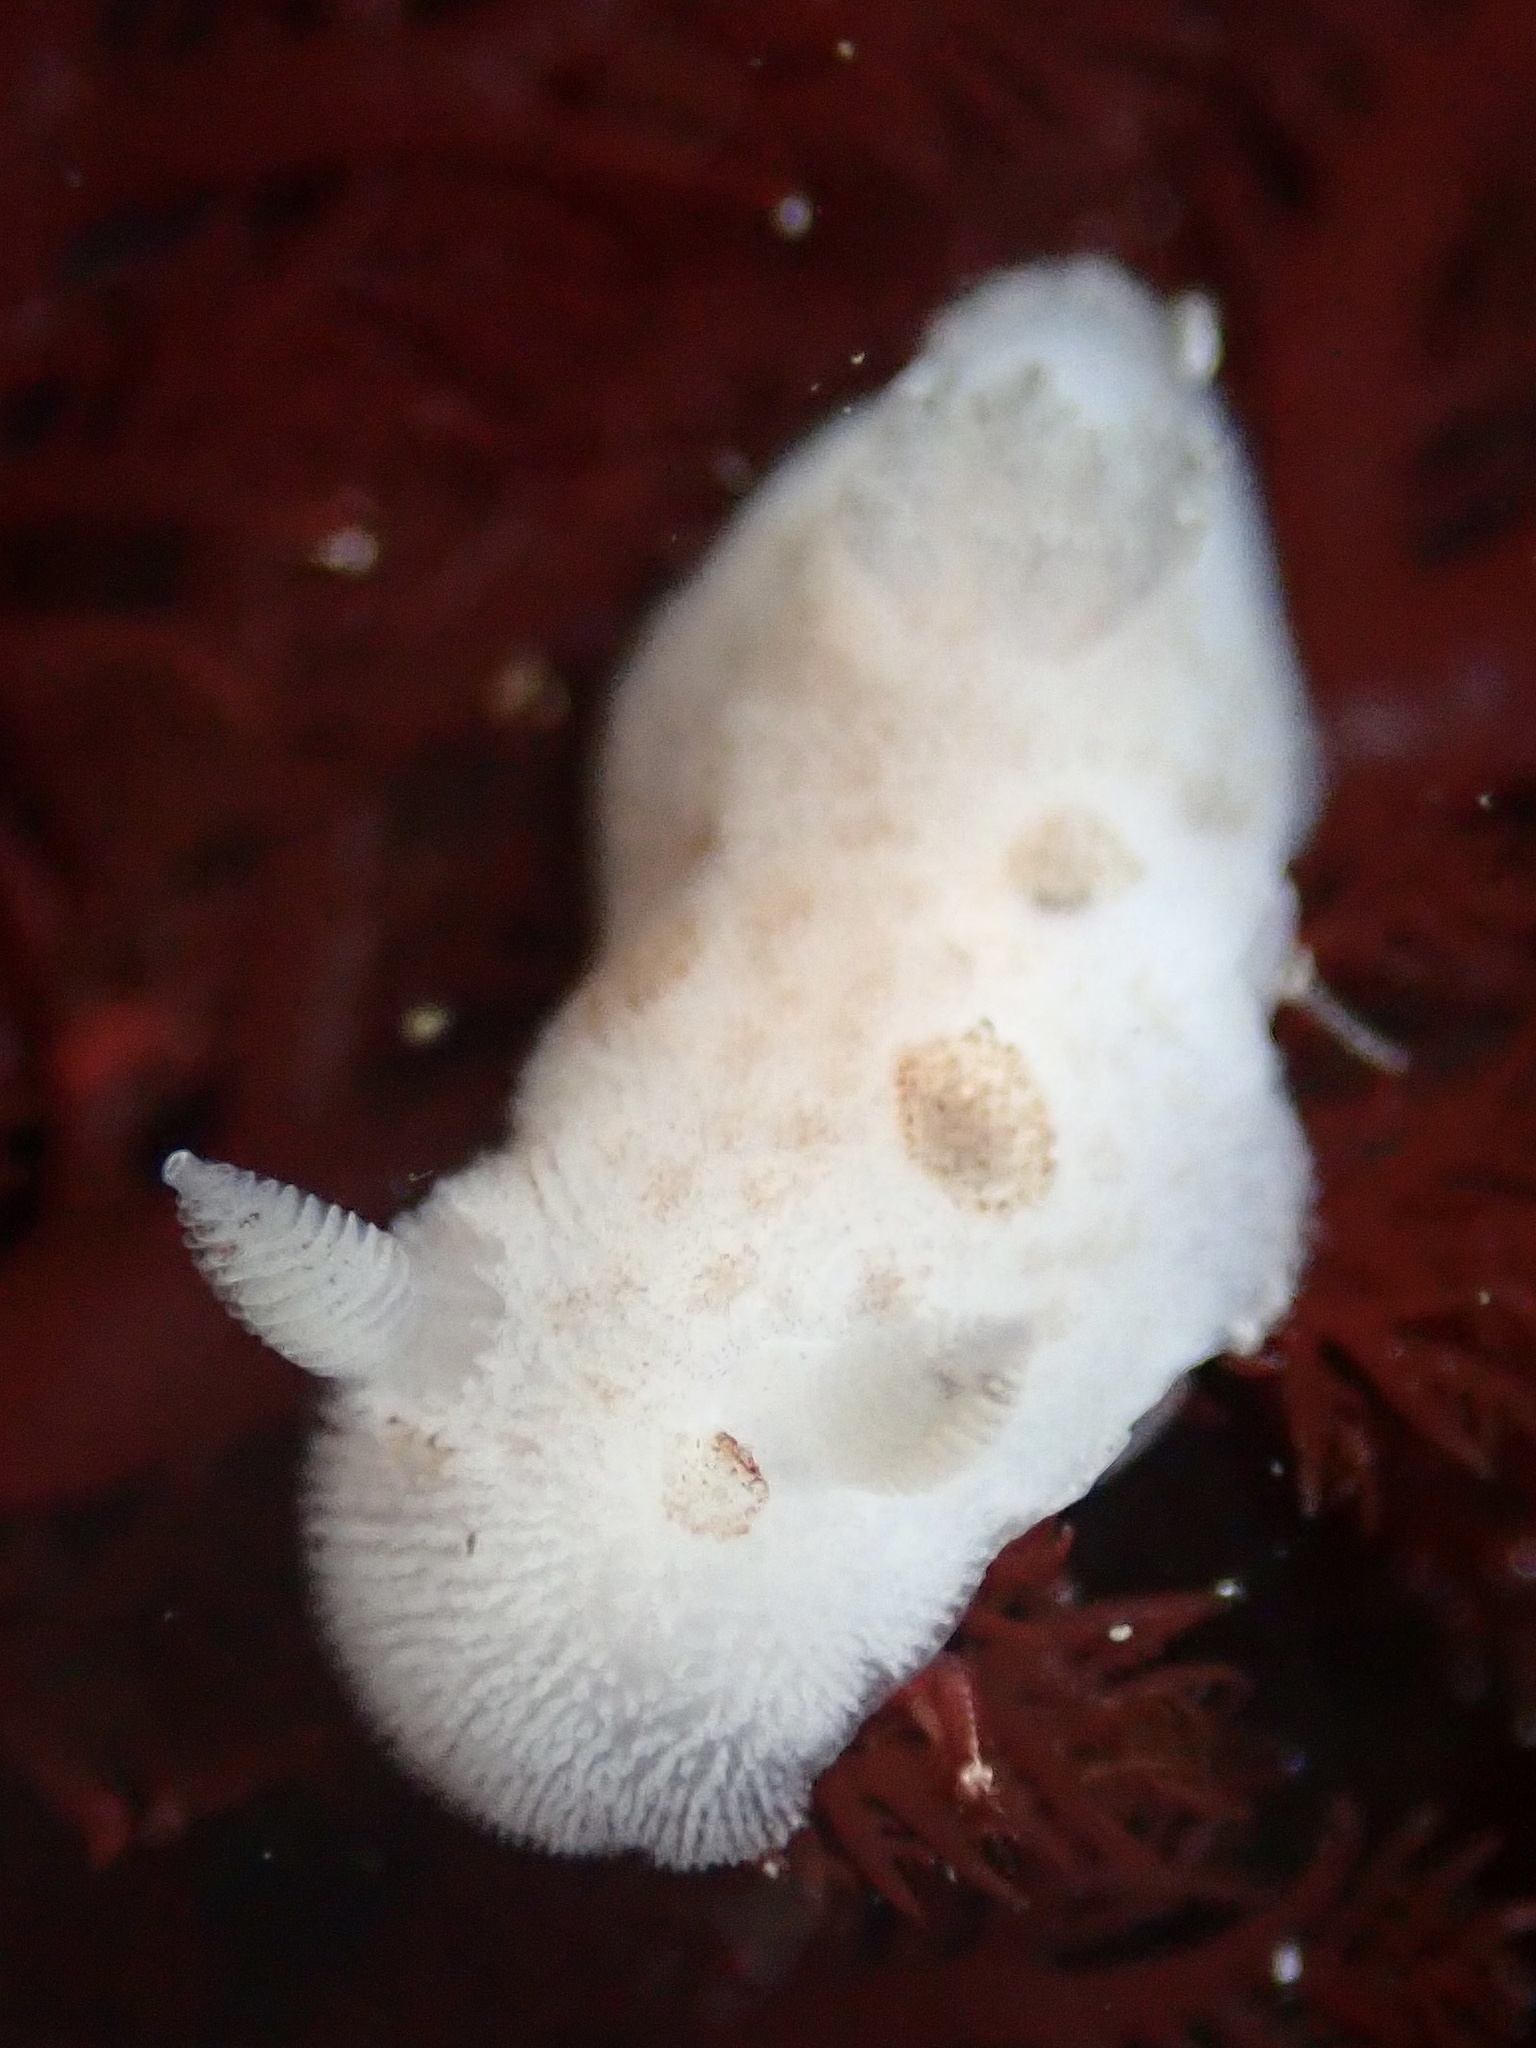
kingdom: Animalia
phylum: Mollusca
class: Gastropoda
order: Nudibranchia
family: Discodorididae
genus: Diaulula
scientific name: Diaulula sandiegensis
